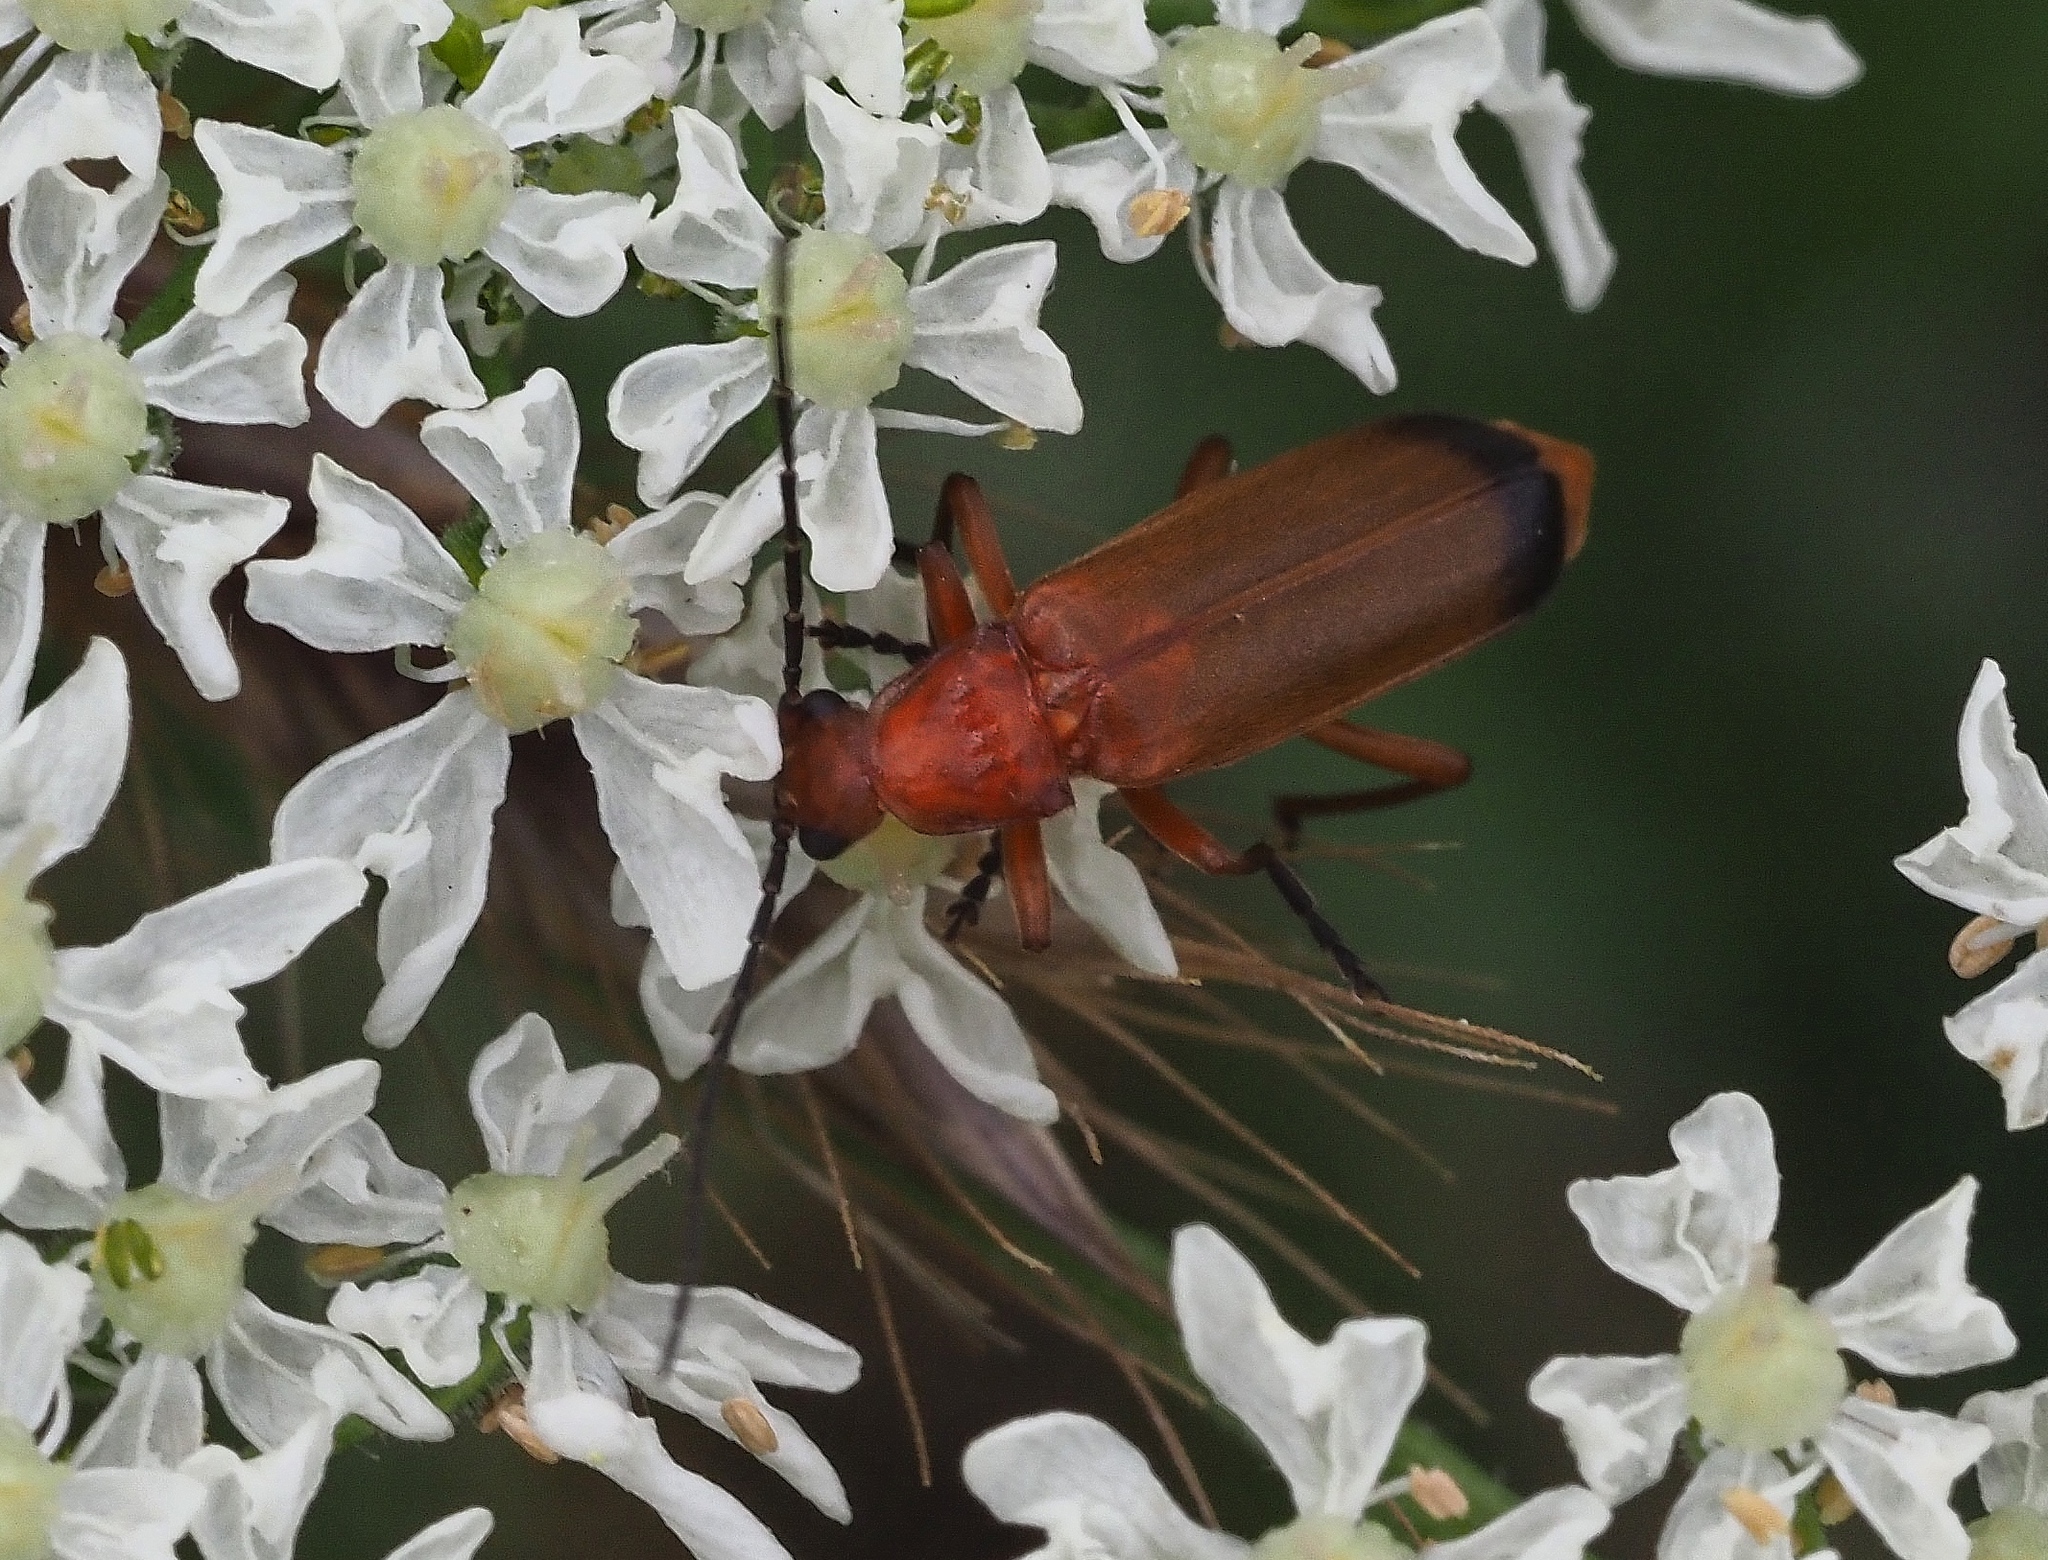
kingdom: Animalia
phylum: Arthropoda
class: Insecta
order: Coleoptera
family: Cantharidae
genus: Rhagonycha
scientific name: Rhagonycha fulva
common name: Common red soldier beetle
